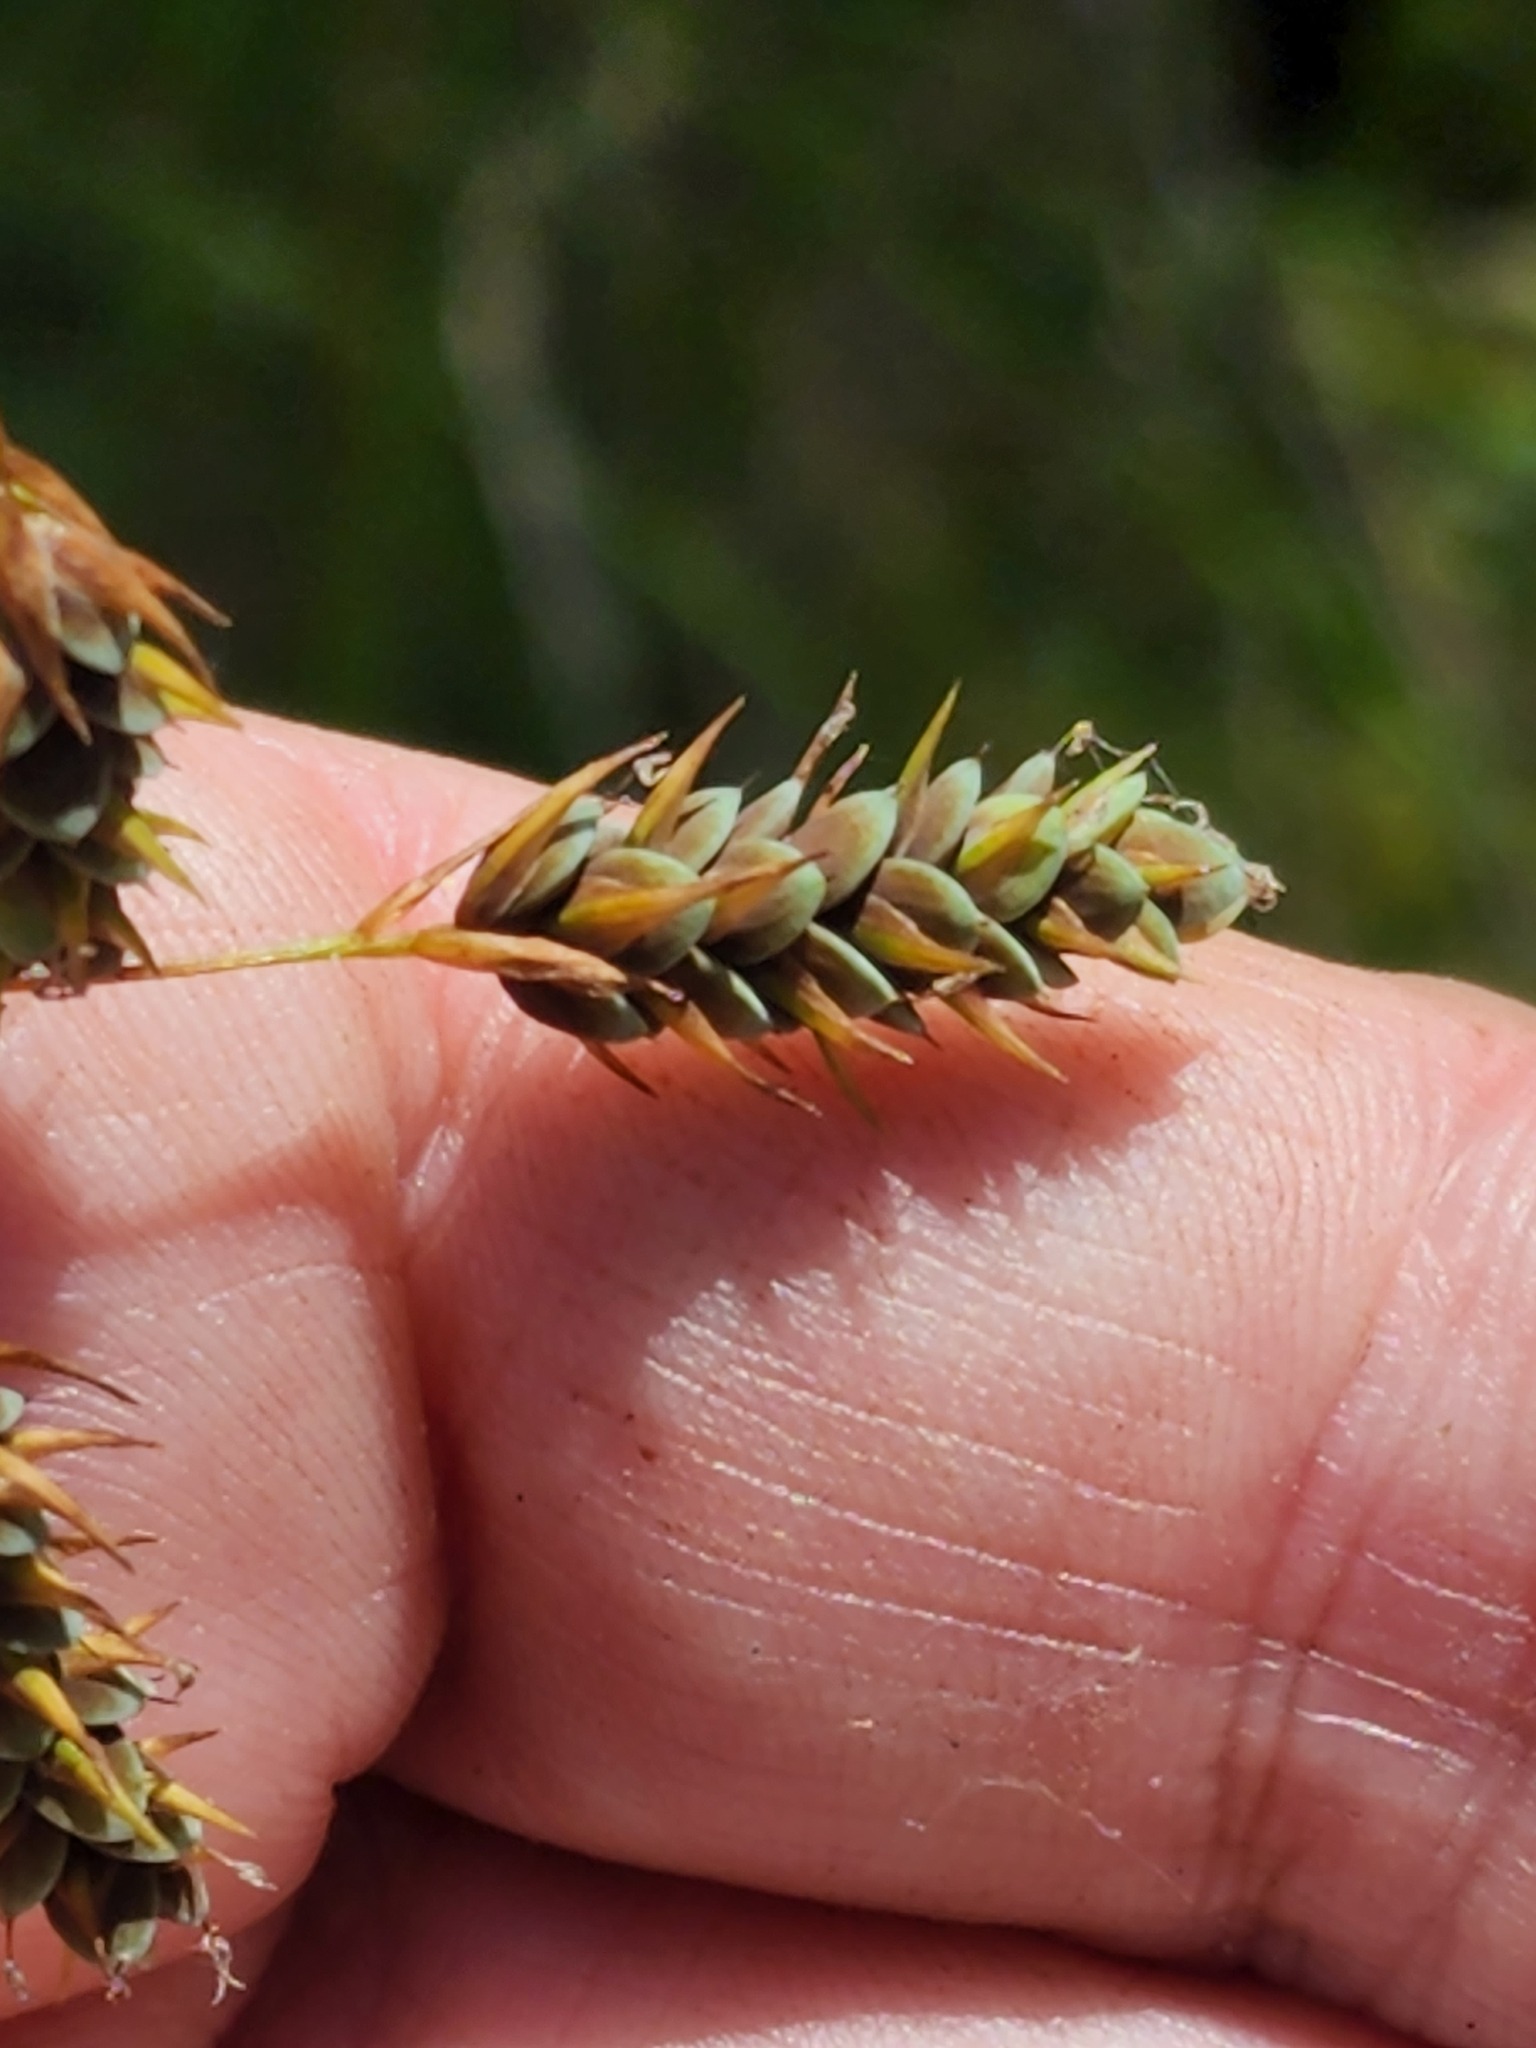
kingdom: Plantae
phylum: Tracheophyta
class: Liliopsida
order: Poales
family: Cyperaceae
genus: Carex
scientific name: Carex magellanica
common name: Bog sedge
